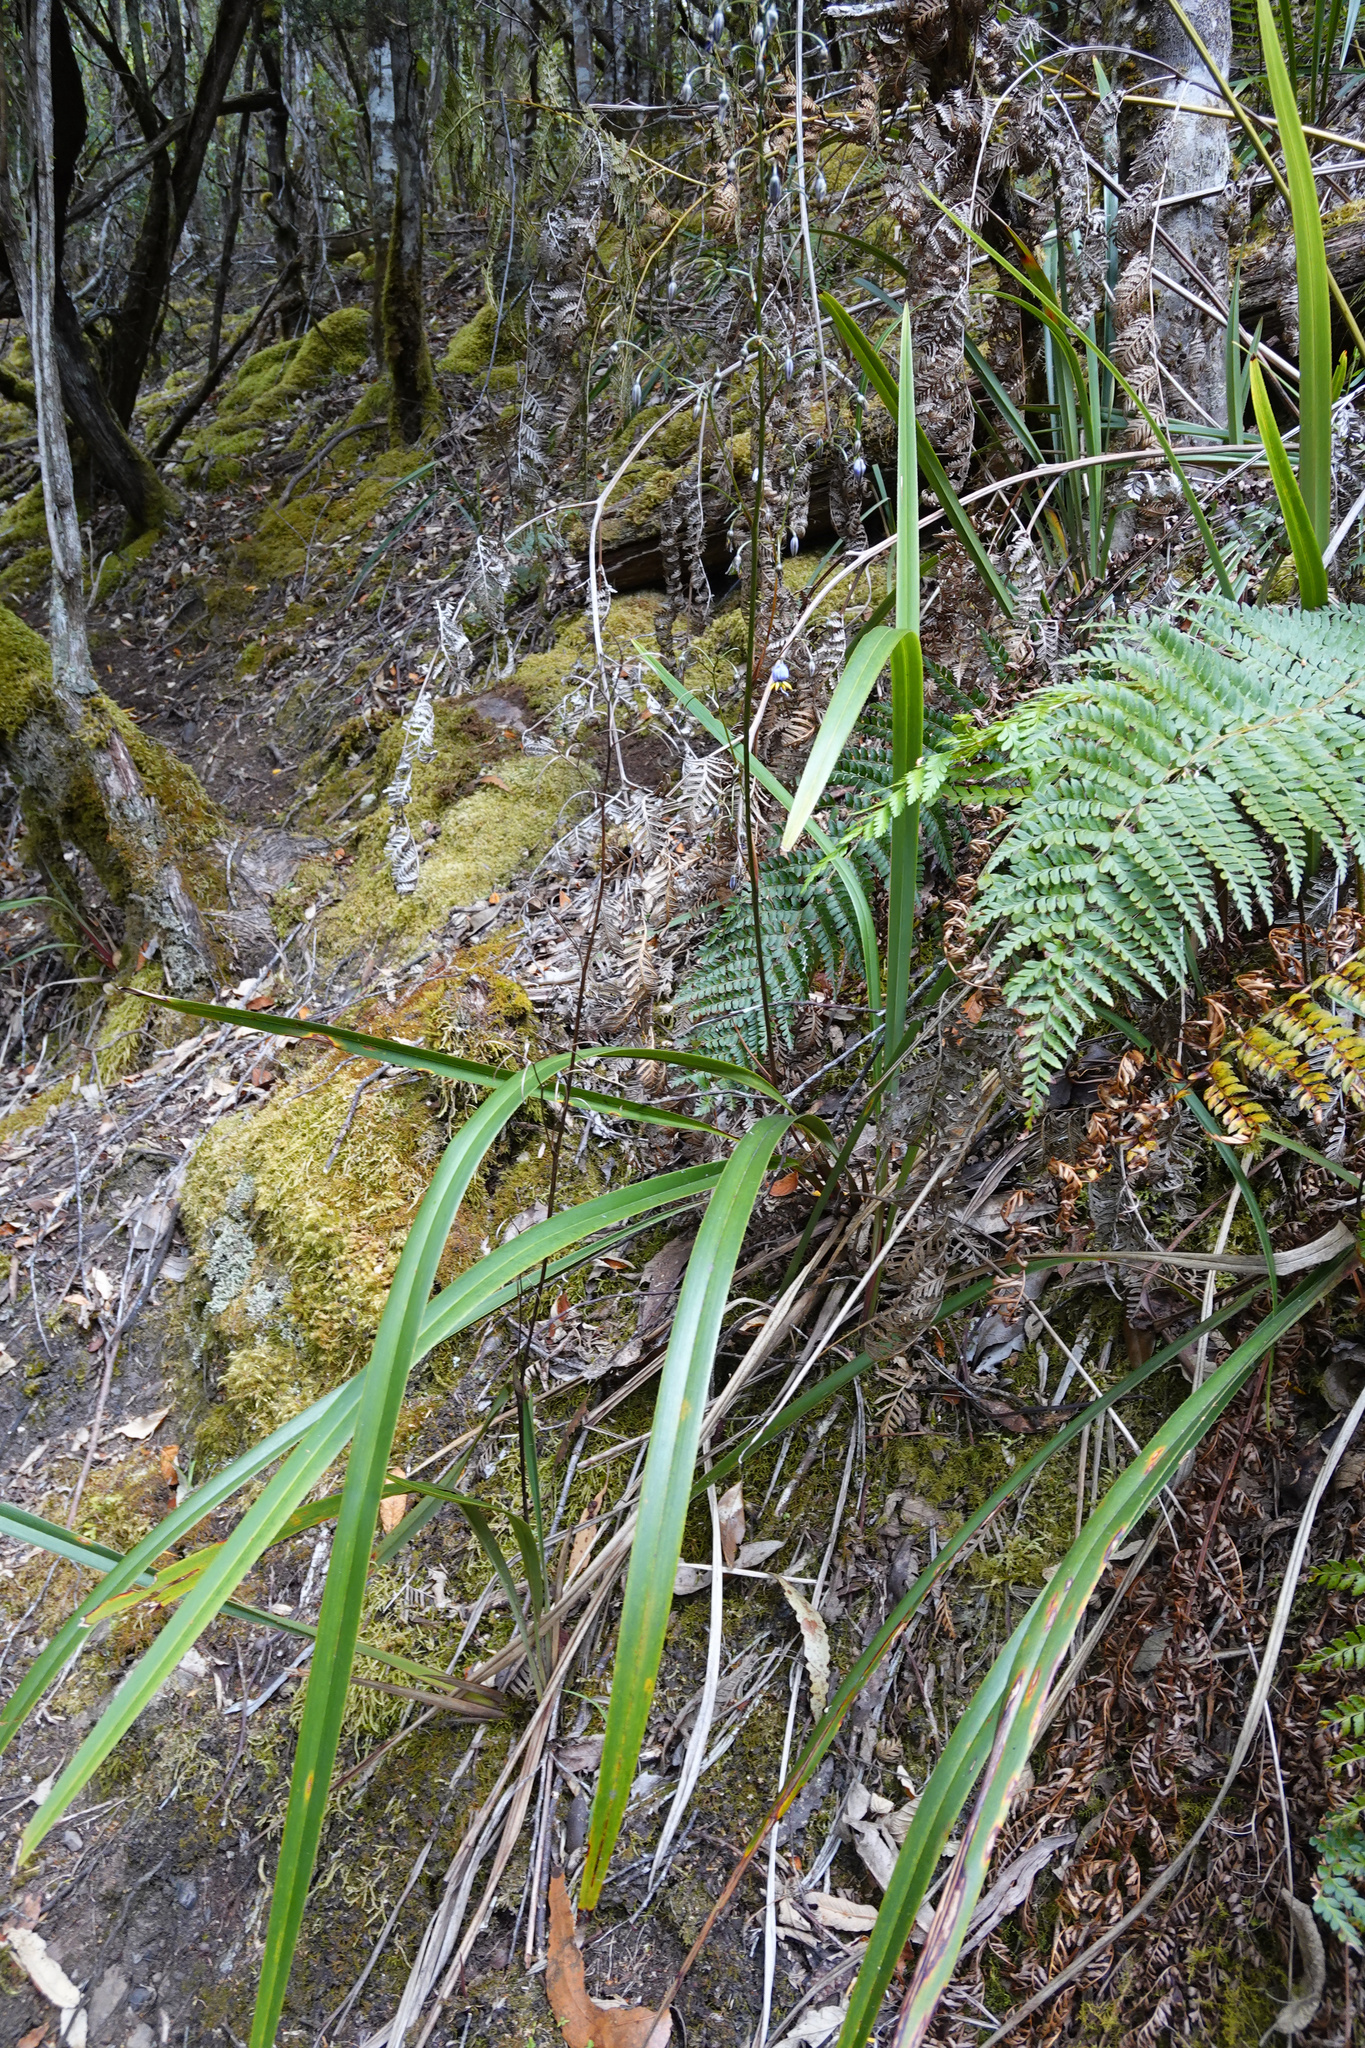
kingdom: Plantae
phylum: Tracheophyta
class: Liliopsida
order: Asparagales
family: Asphodelaceae
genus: Dianella
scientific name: Dianella tasmanica
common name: Tasman flax-lily
